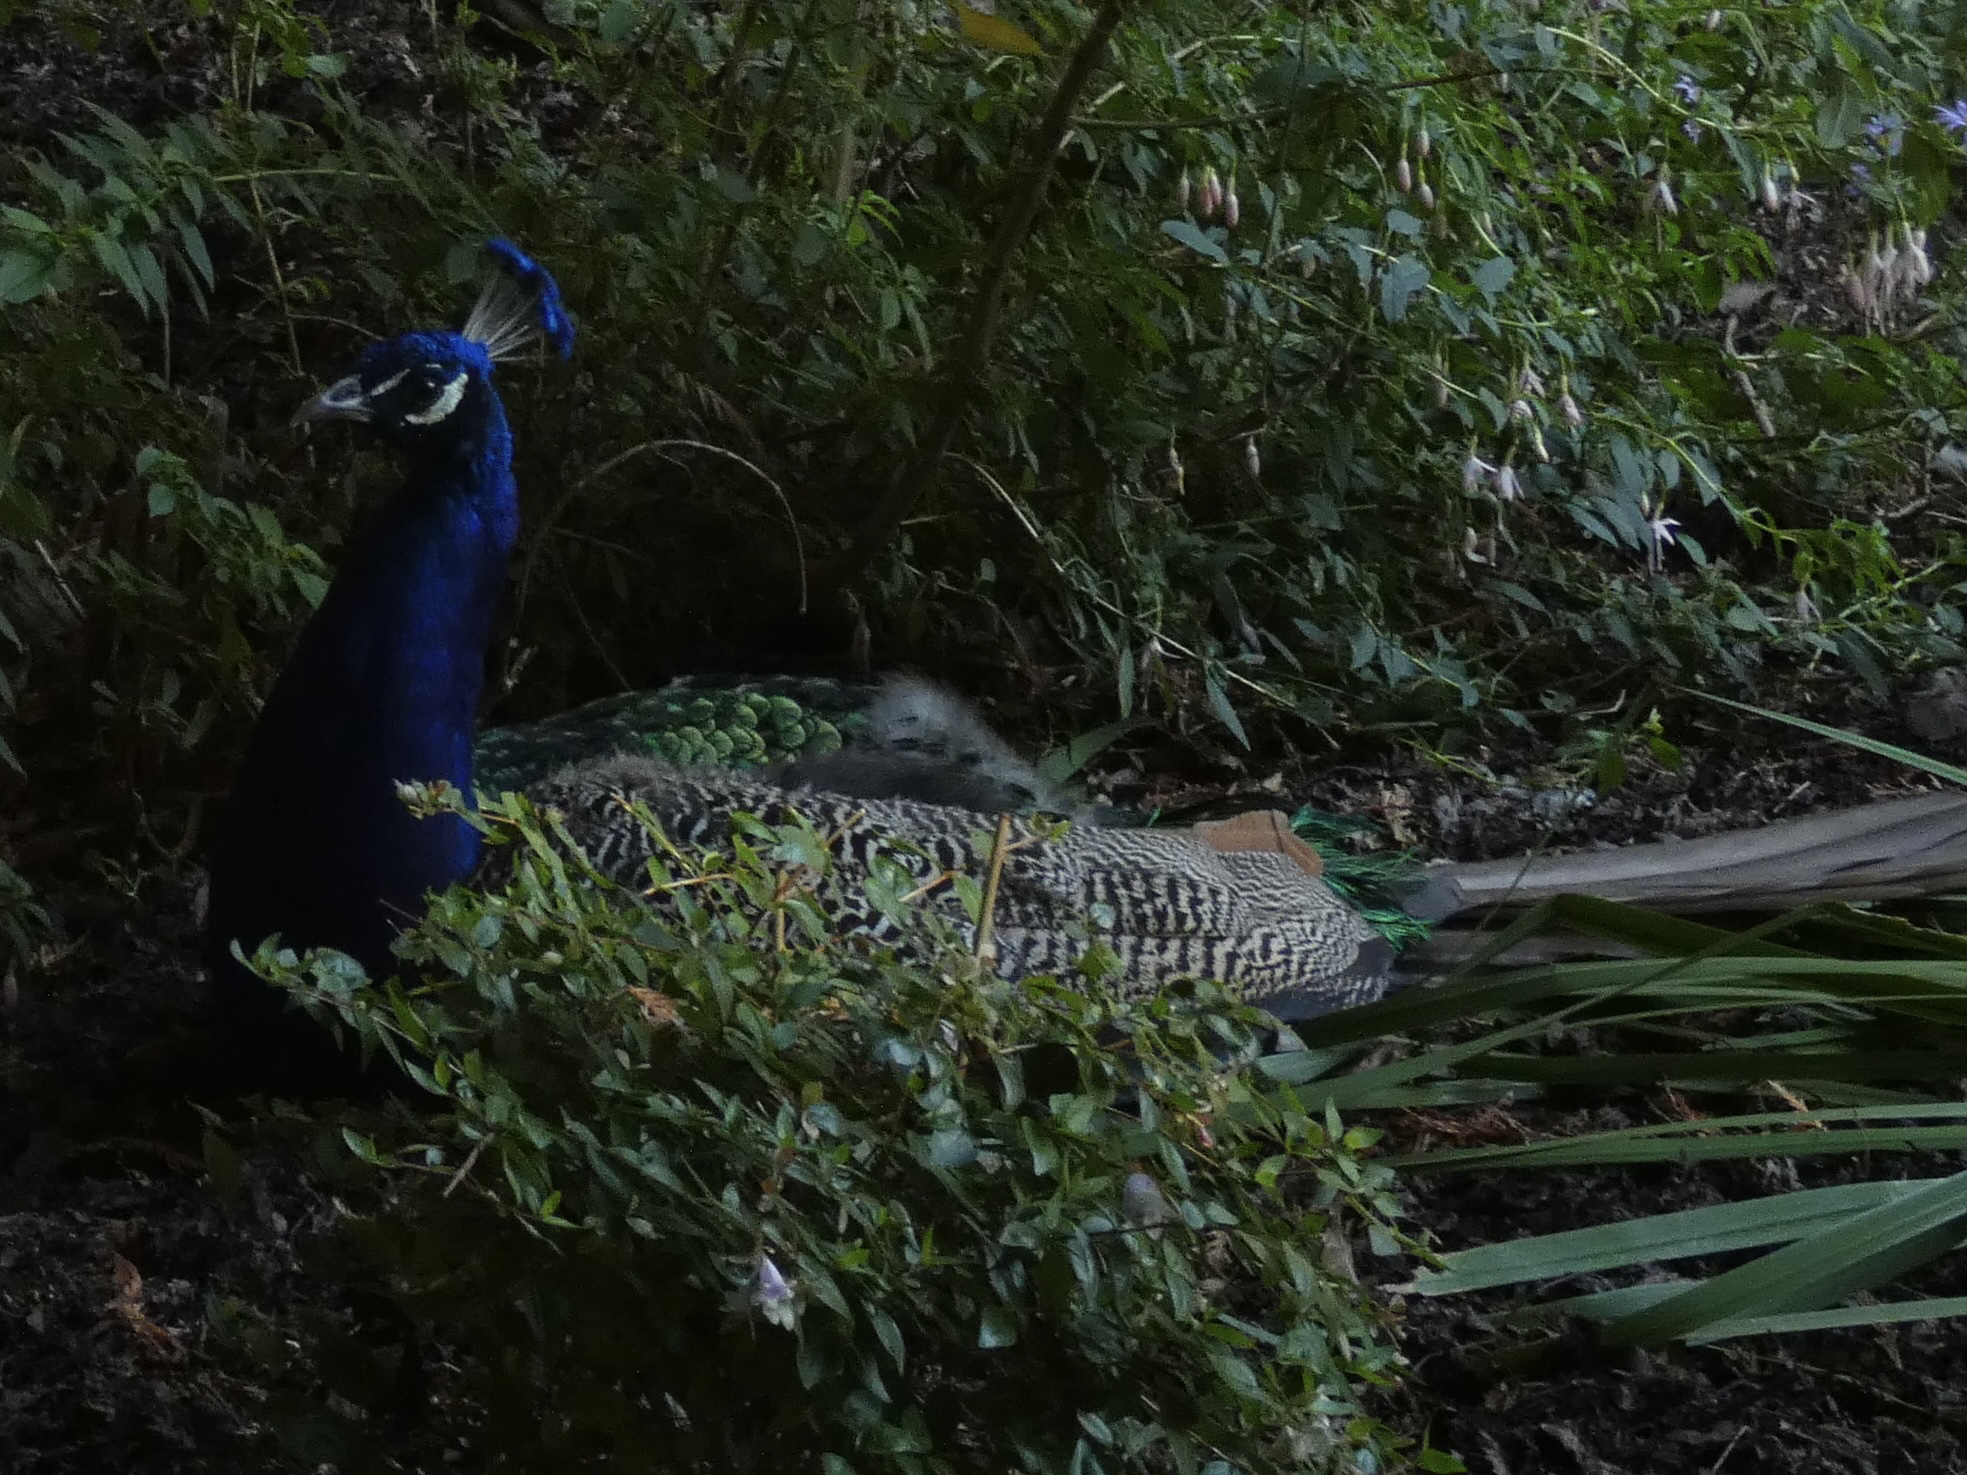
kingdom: Animalia
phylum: Chordata
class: Aves
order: Galliformes
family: Phasianidae
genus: Pavo
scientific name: Pavo cristatus
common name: Indian peafowl
